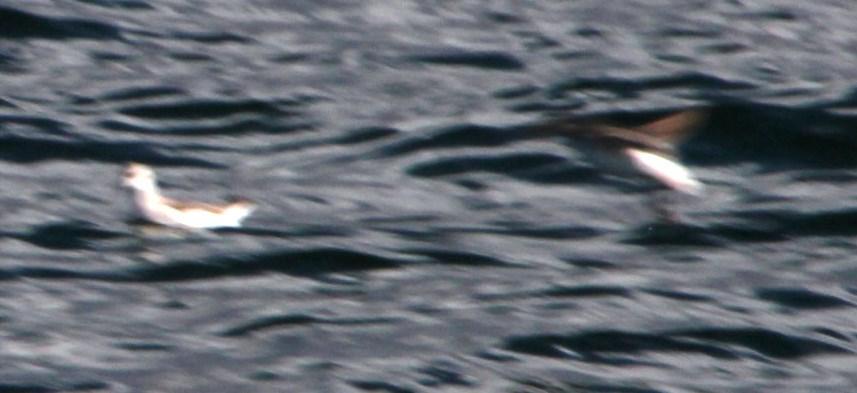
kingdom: Animalia
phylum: Chordata
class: Aves
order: Charadriiformes
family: Scolopacidae
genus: Phalaropus
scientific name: Phalaropus tricolor
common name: Wilson's phalarope
